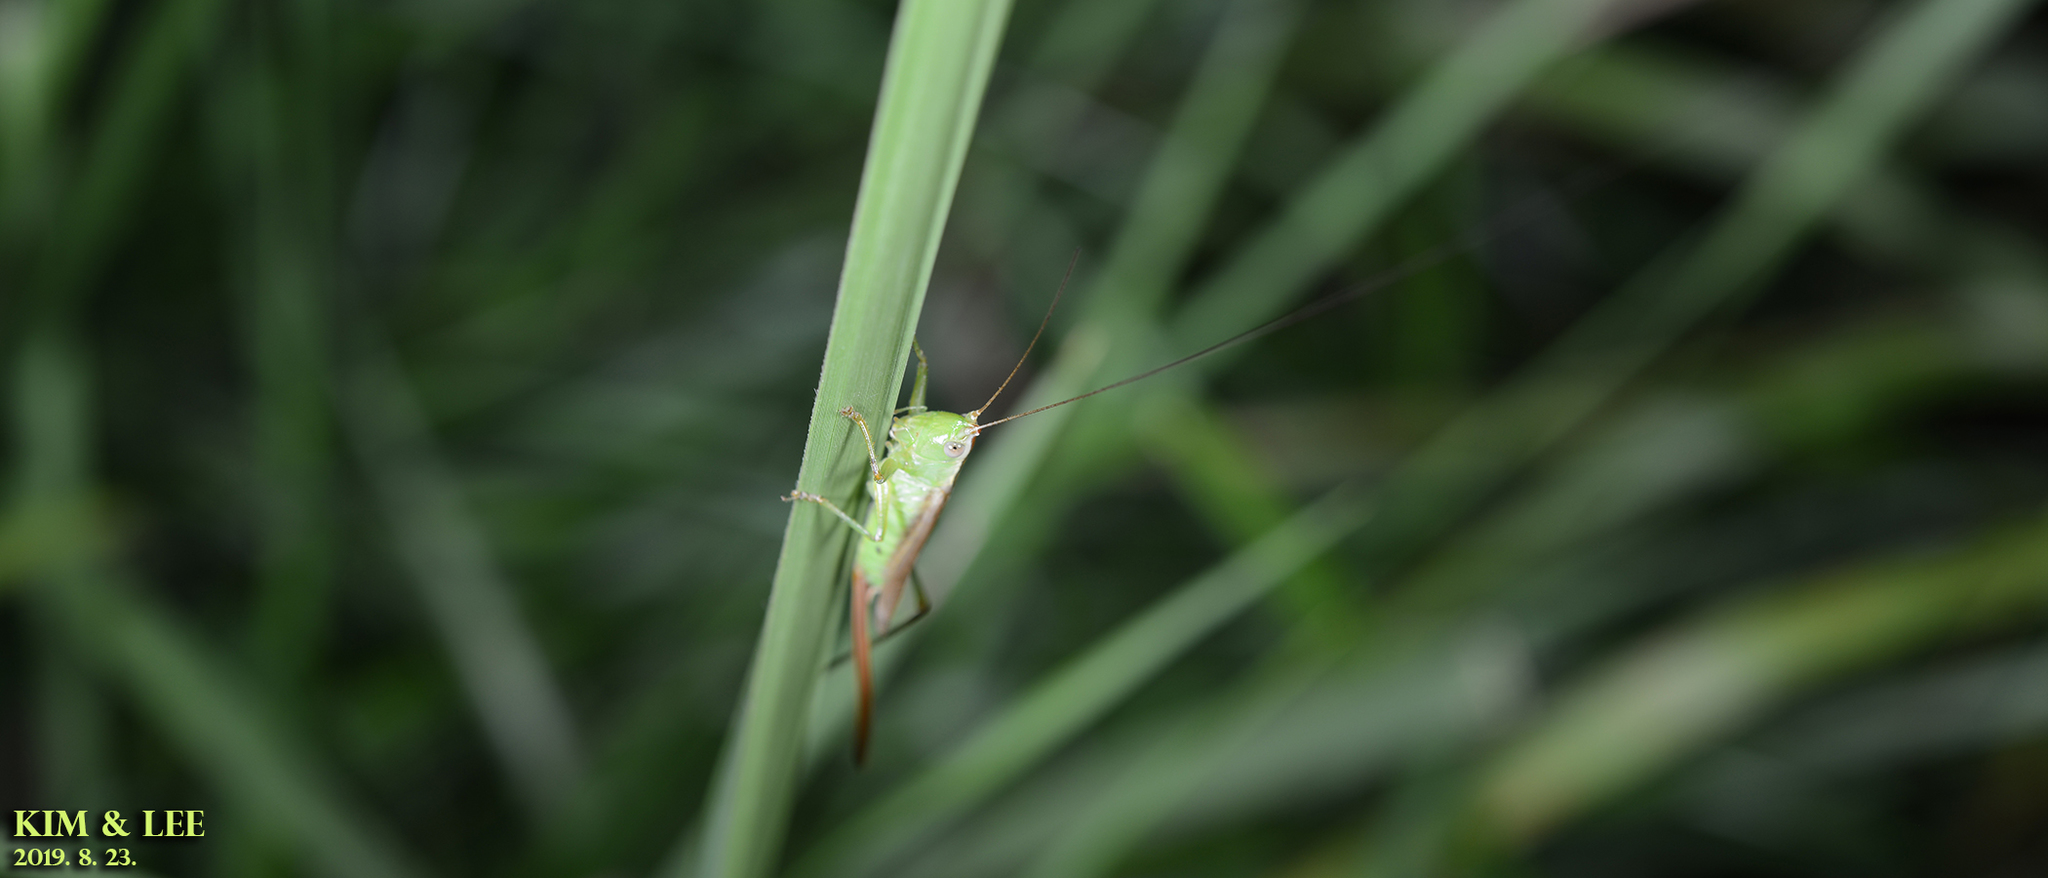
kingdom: Animalia
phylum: Arthropoda
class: Insecta
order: Orthoptera
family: Tettigoniidae
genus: Conocephalus
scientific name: Conocephalus exemptus
